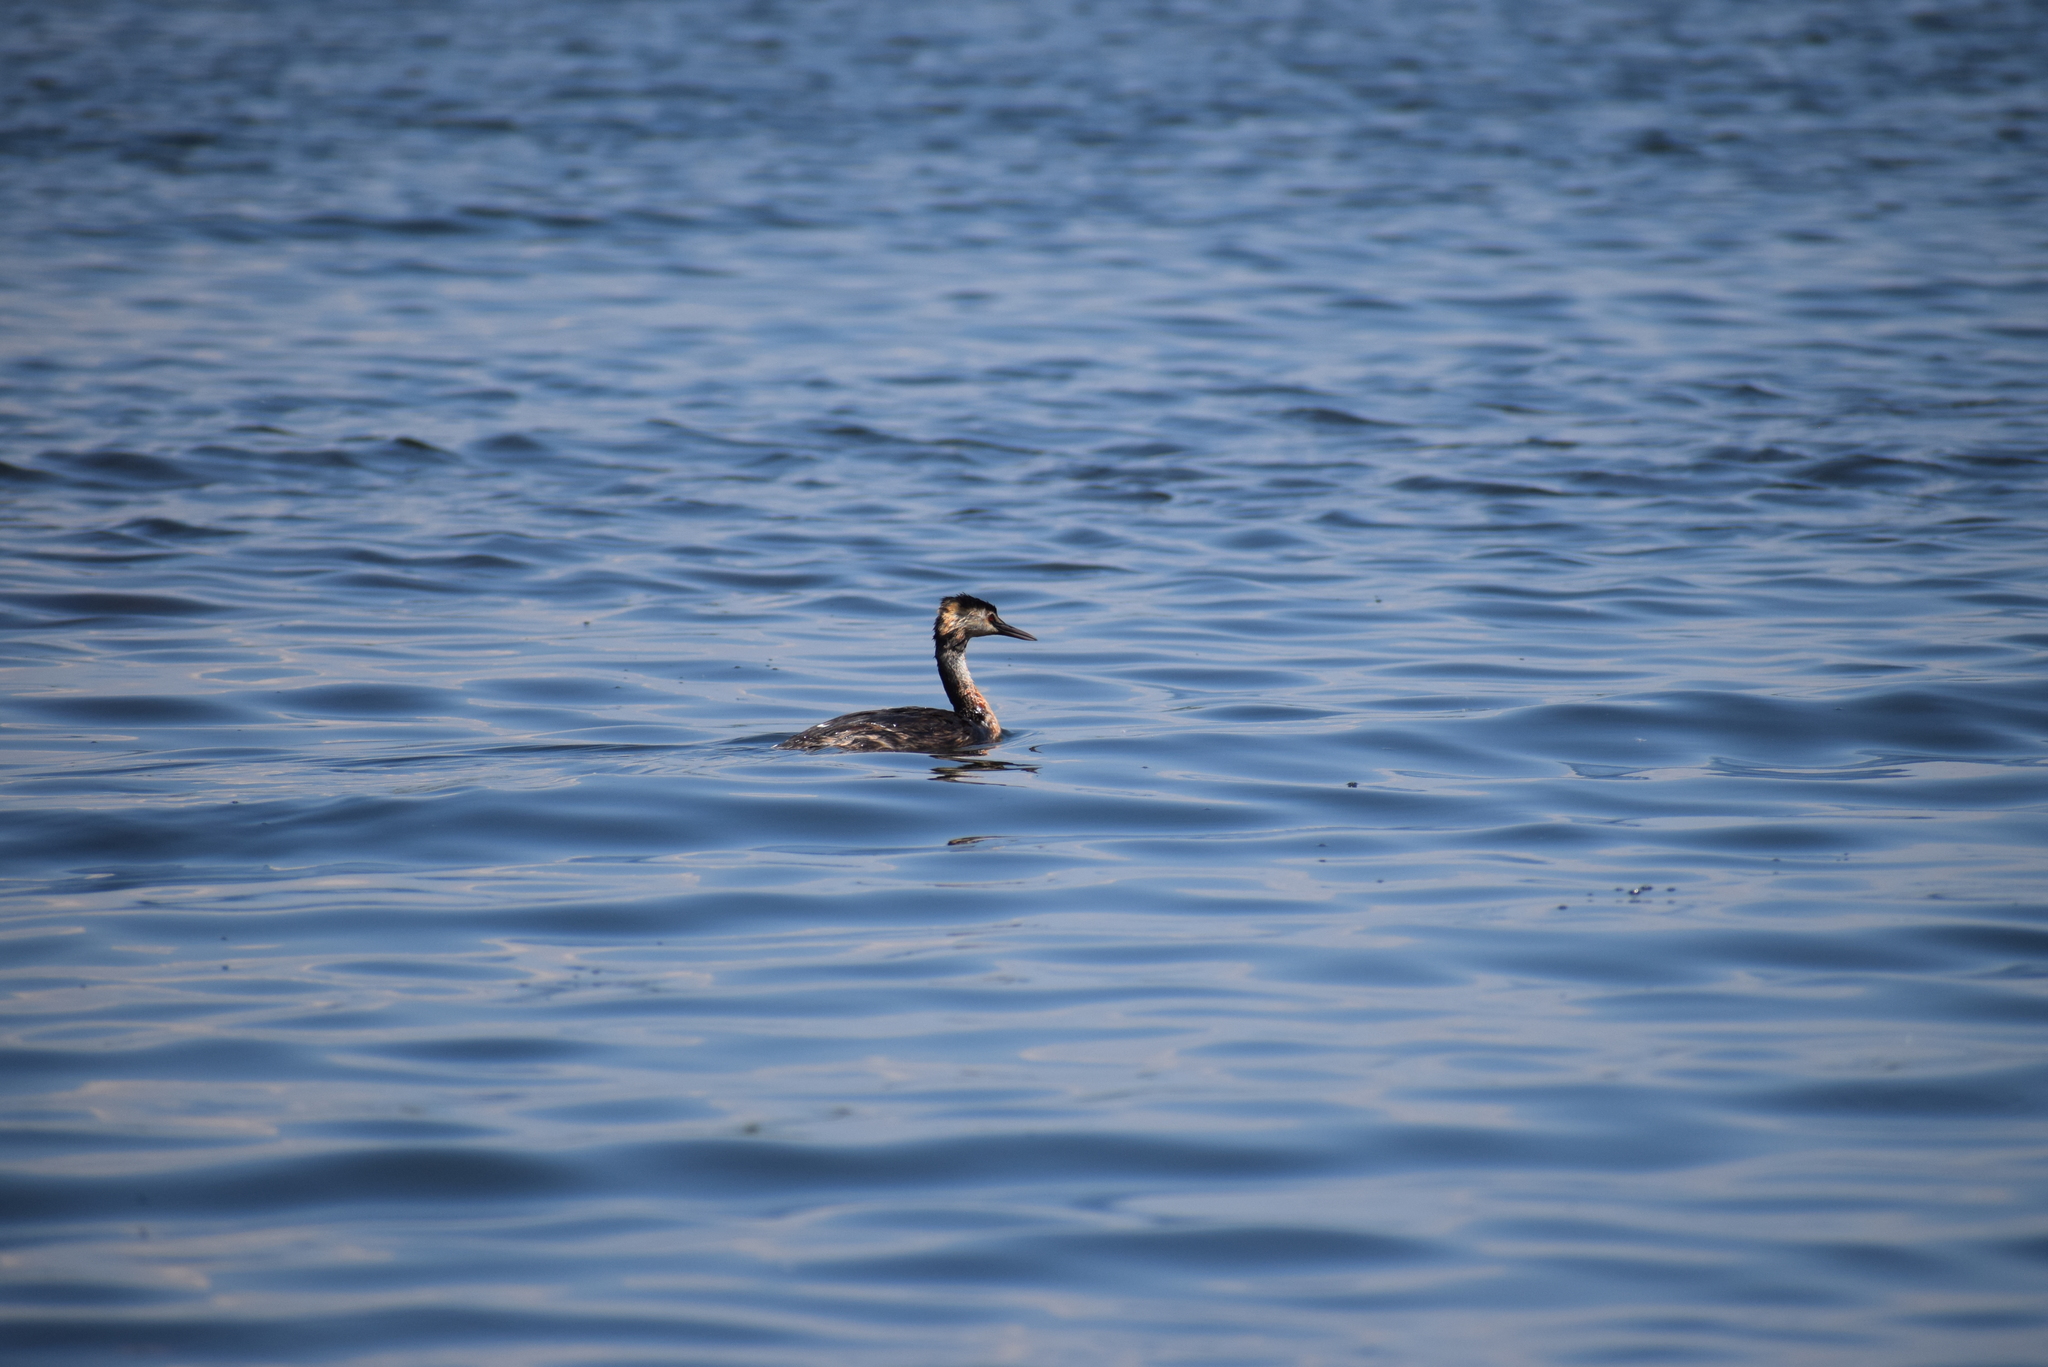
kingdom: Animalia
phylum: Chordata
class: Aves
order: Podicipediformes
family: Podicipedidae
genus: Podiceps
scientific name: Podiceps cristatus
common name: Great crested grebe
